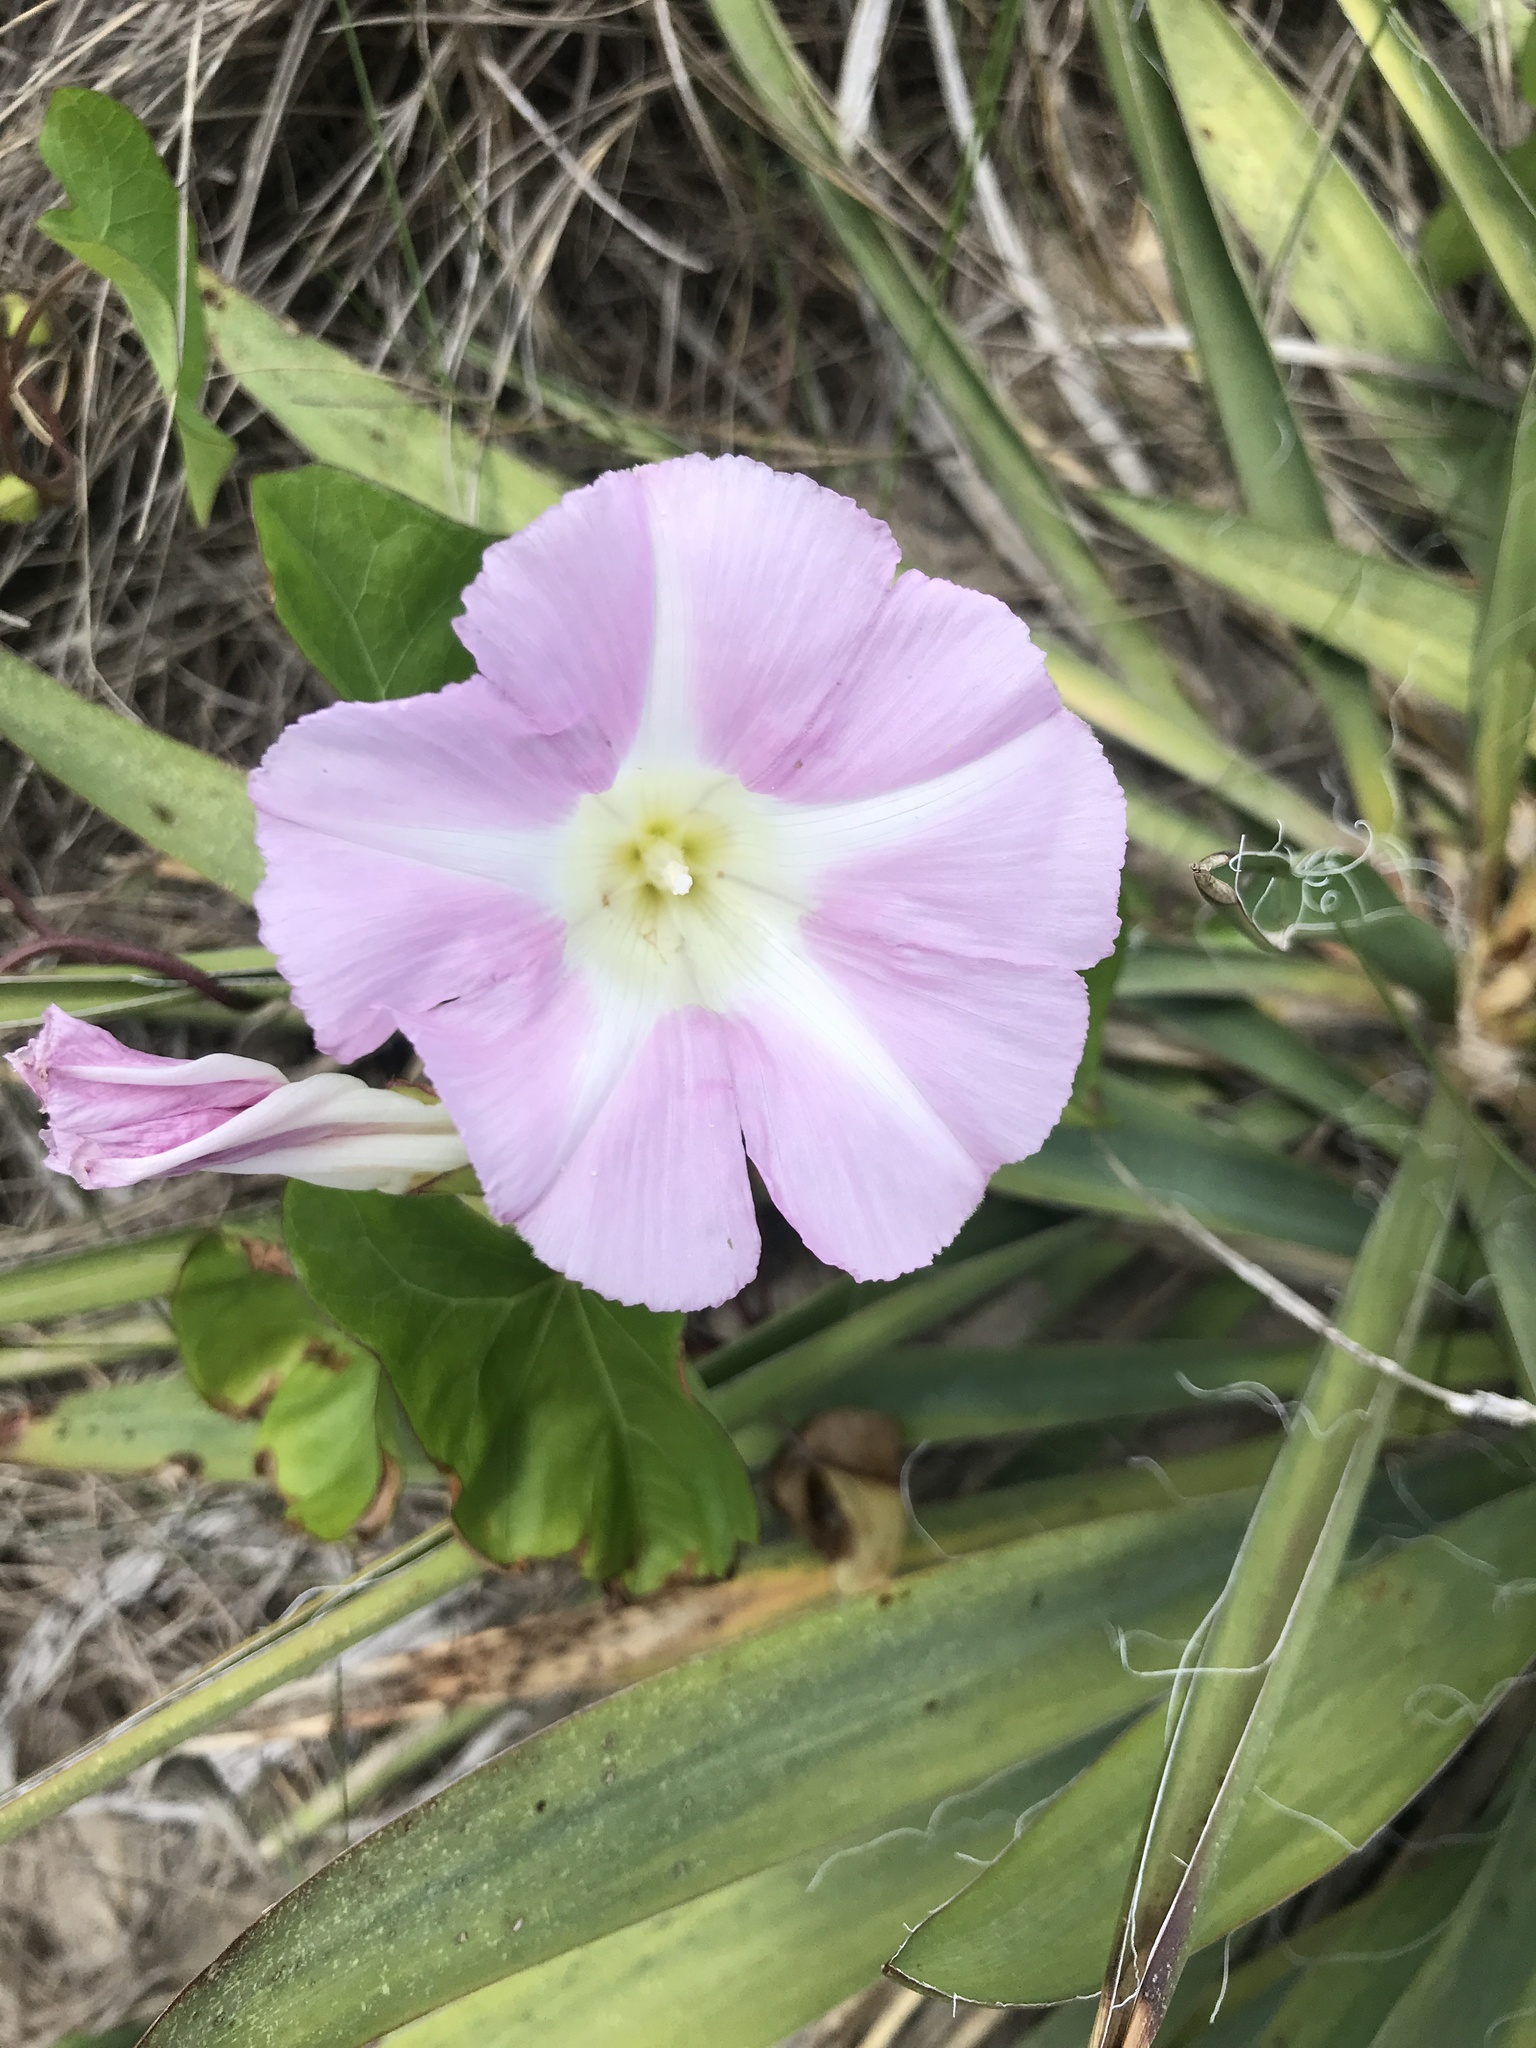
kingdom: Plantae
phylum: Tracheophyta
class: Magnoliopsida
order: Solanales
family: Convolvulaceae
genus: Calystegia
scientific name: Calystegia sepium
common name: Hedge bindweed
